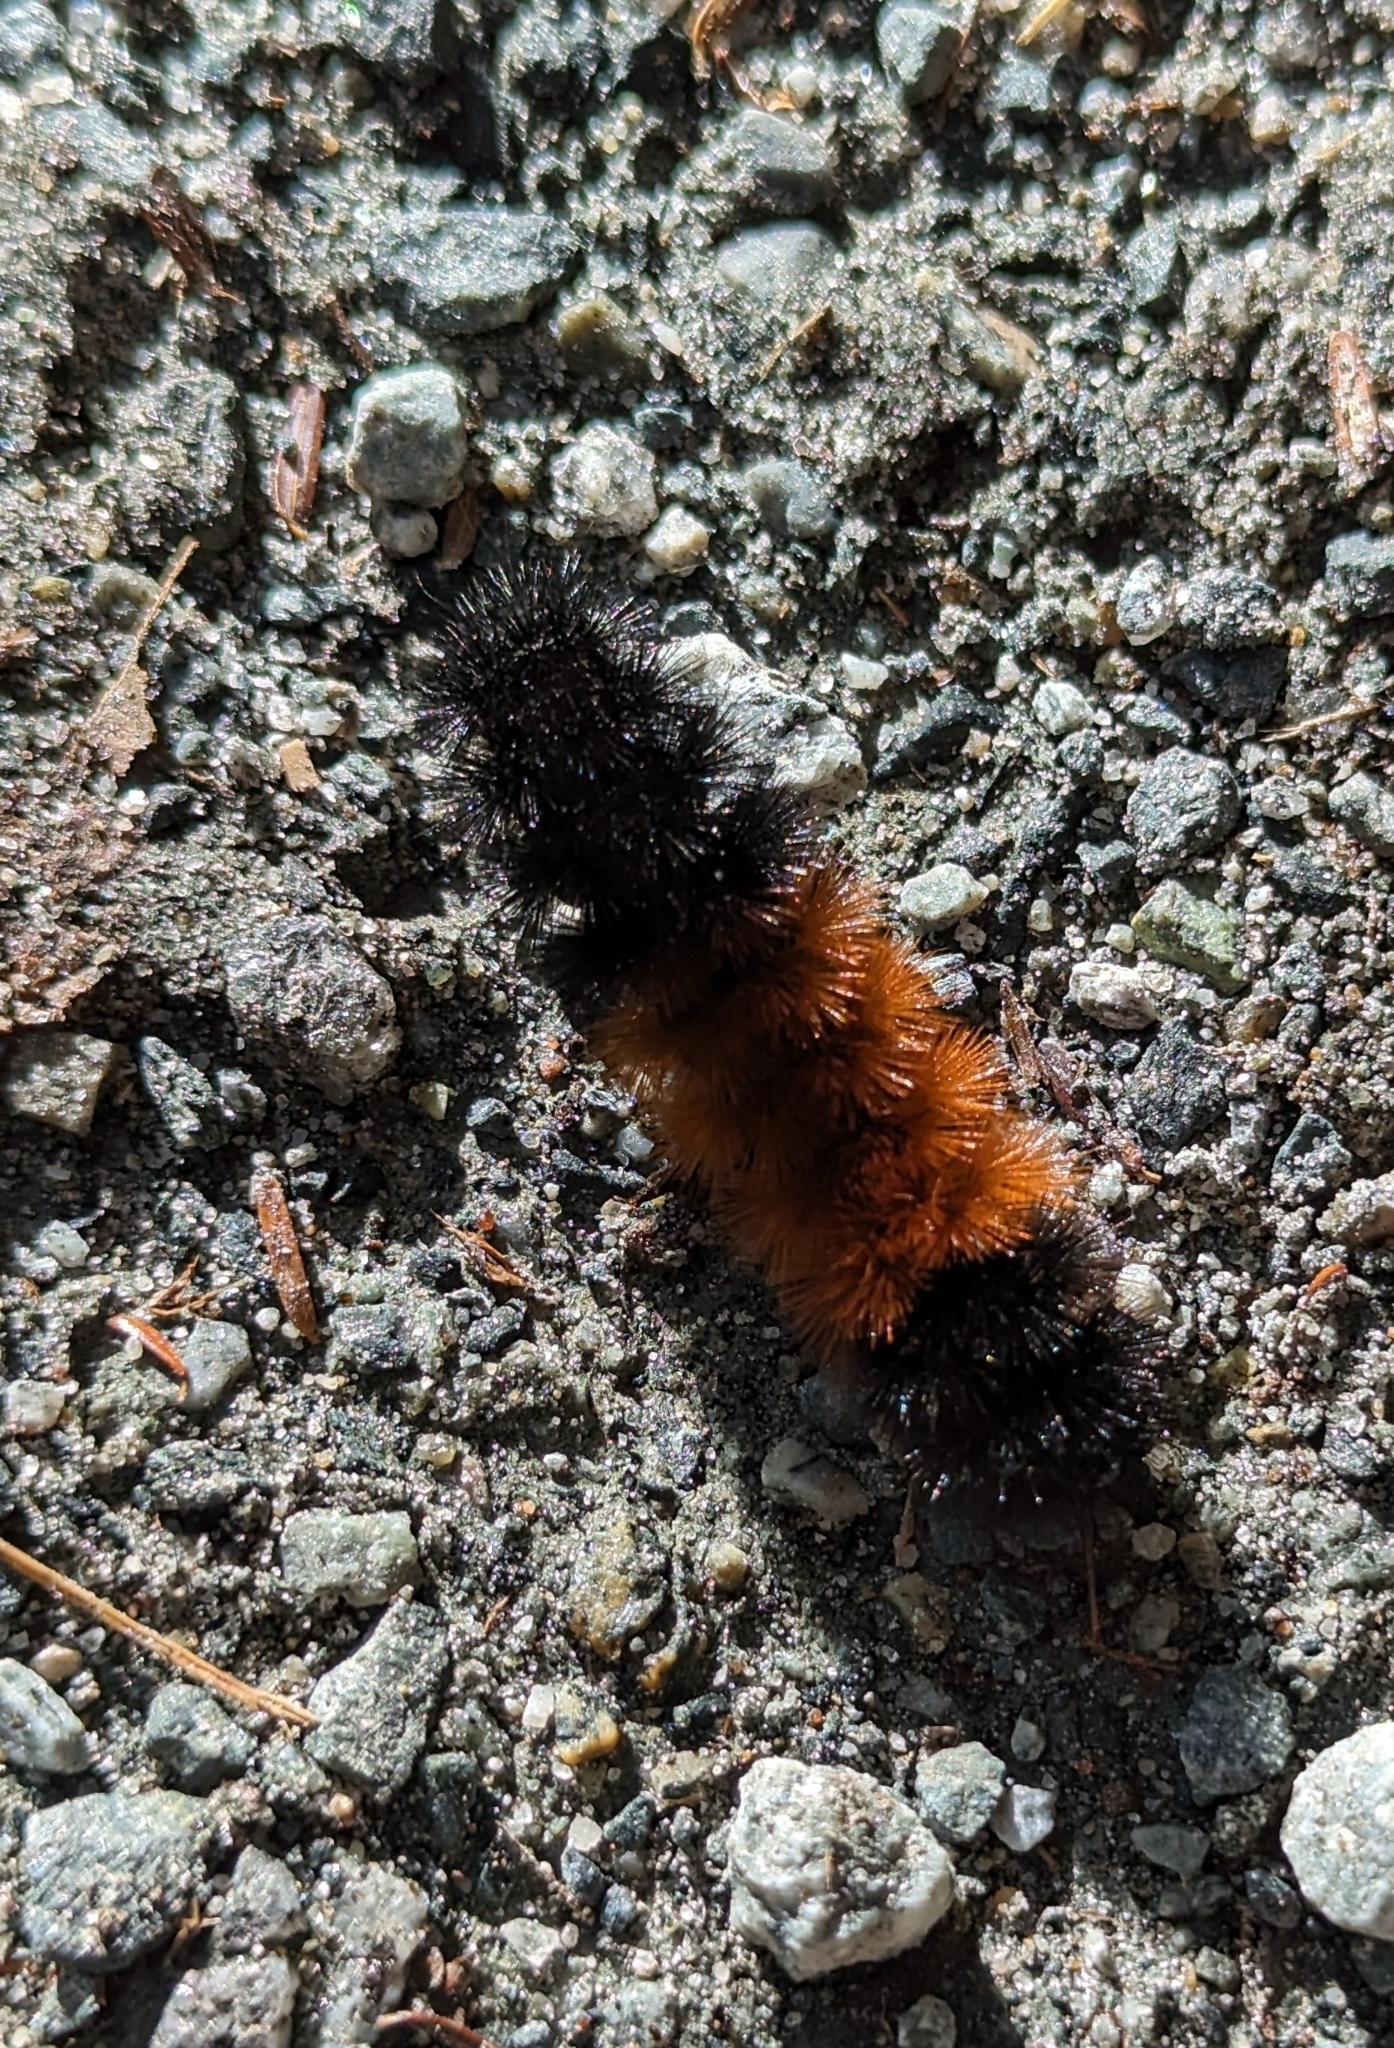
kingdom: Animalia
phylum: Arthropoda
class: Insecta
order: Lepidoptera
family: Erebidae
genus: Pyrrharctia
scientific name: Pyrrharctia isabella
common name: Isabella tiger moth
